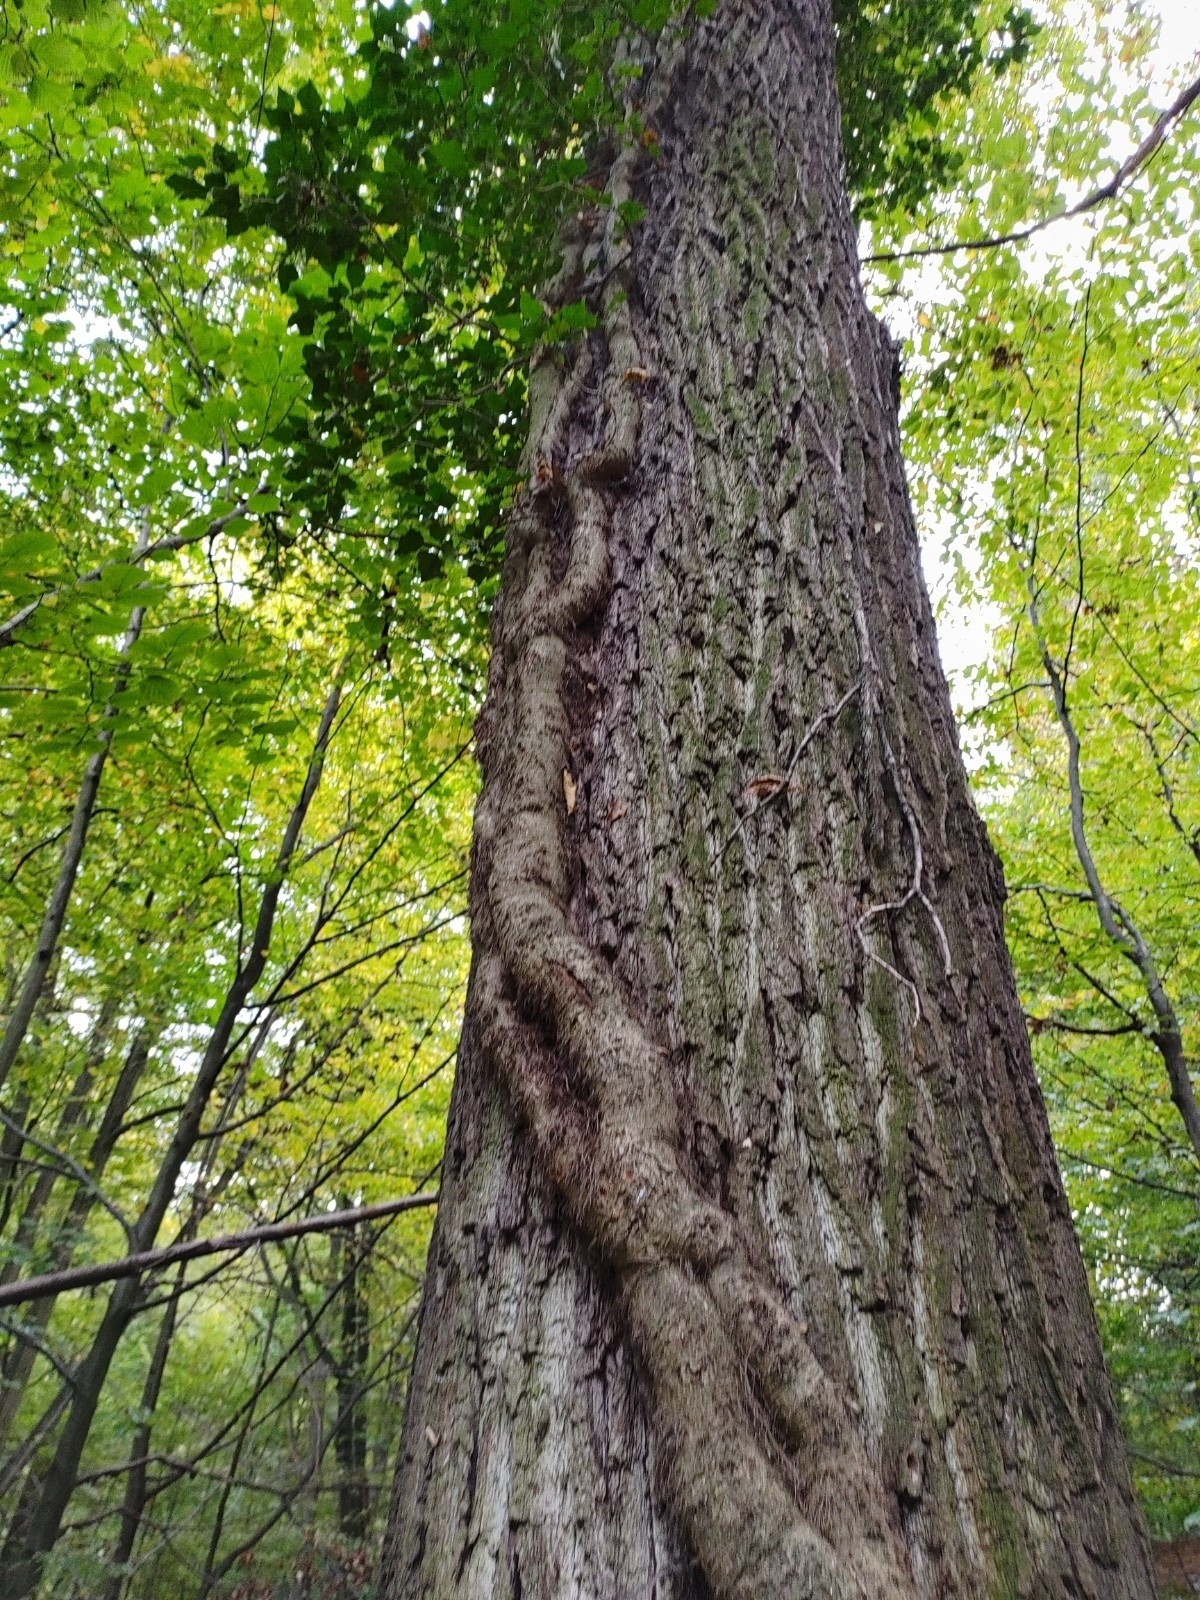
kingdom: Plantae
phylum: Tracheophyta
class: Magnoliopsida
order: Apiales
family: Araliaceae
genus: Hedera
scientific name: Hedera helix
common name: Ivy
